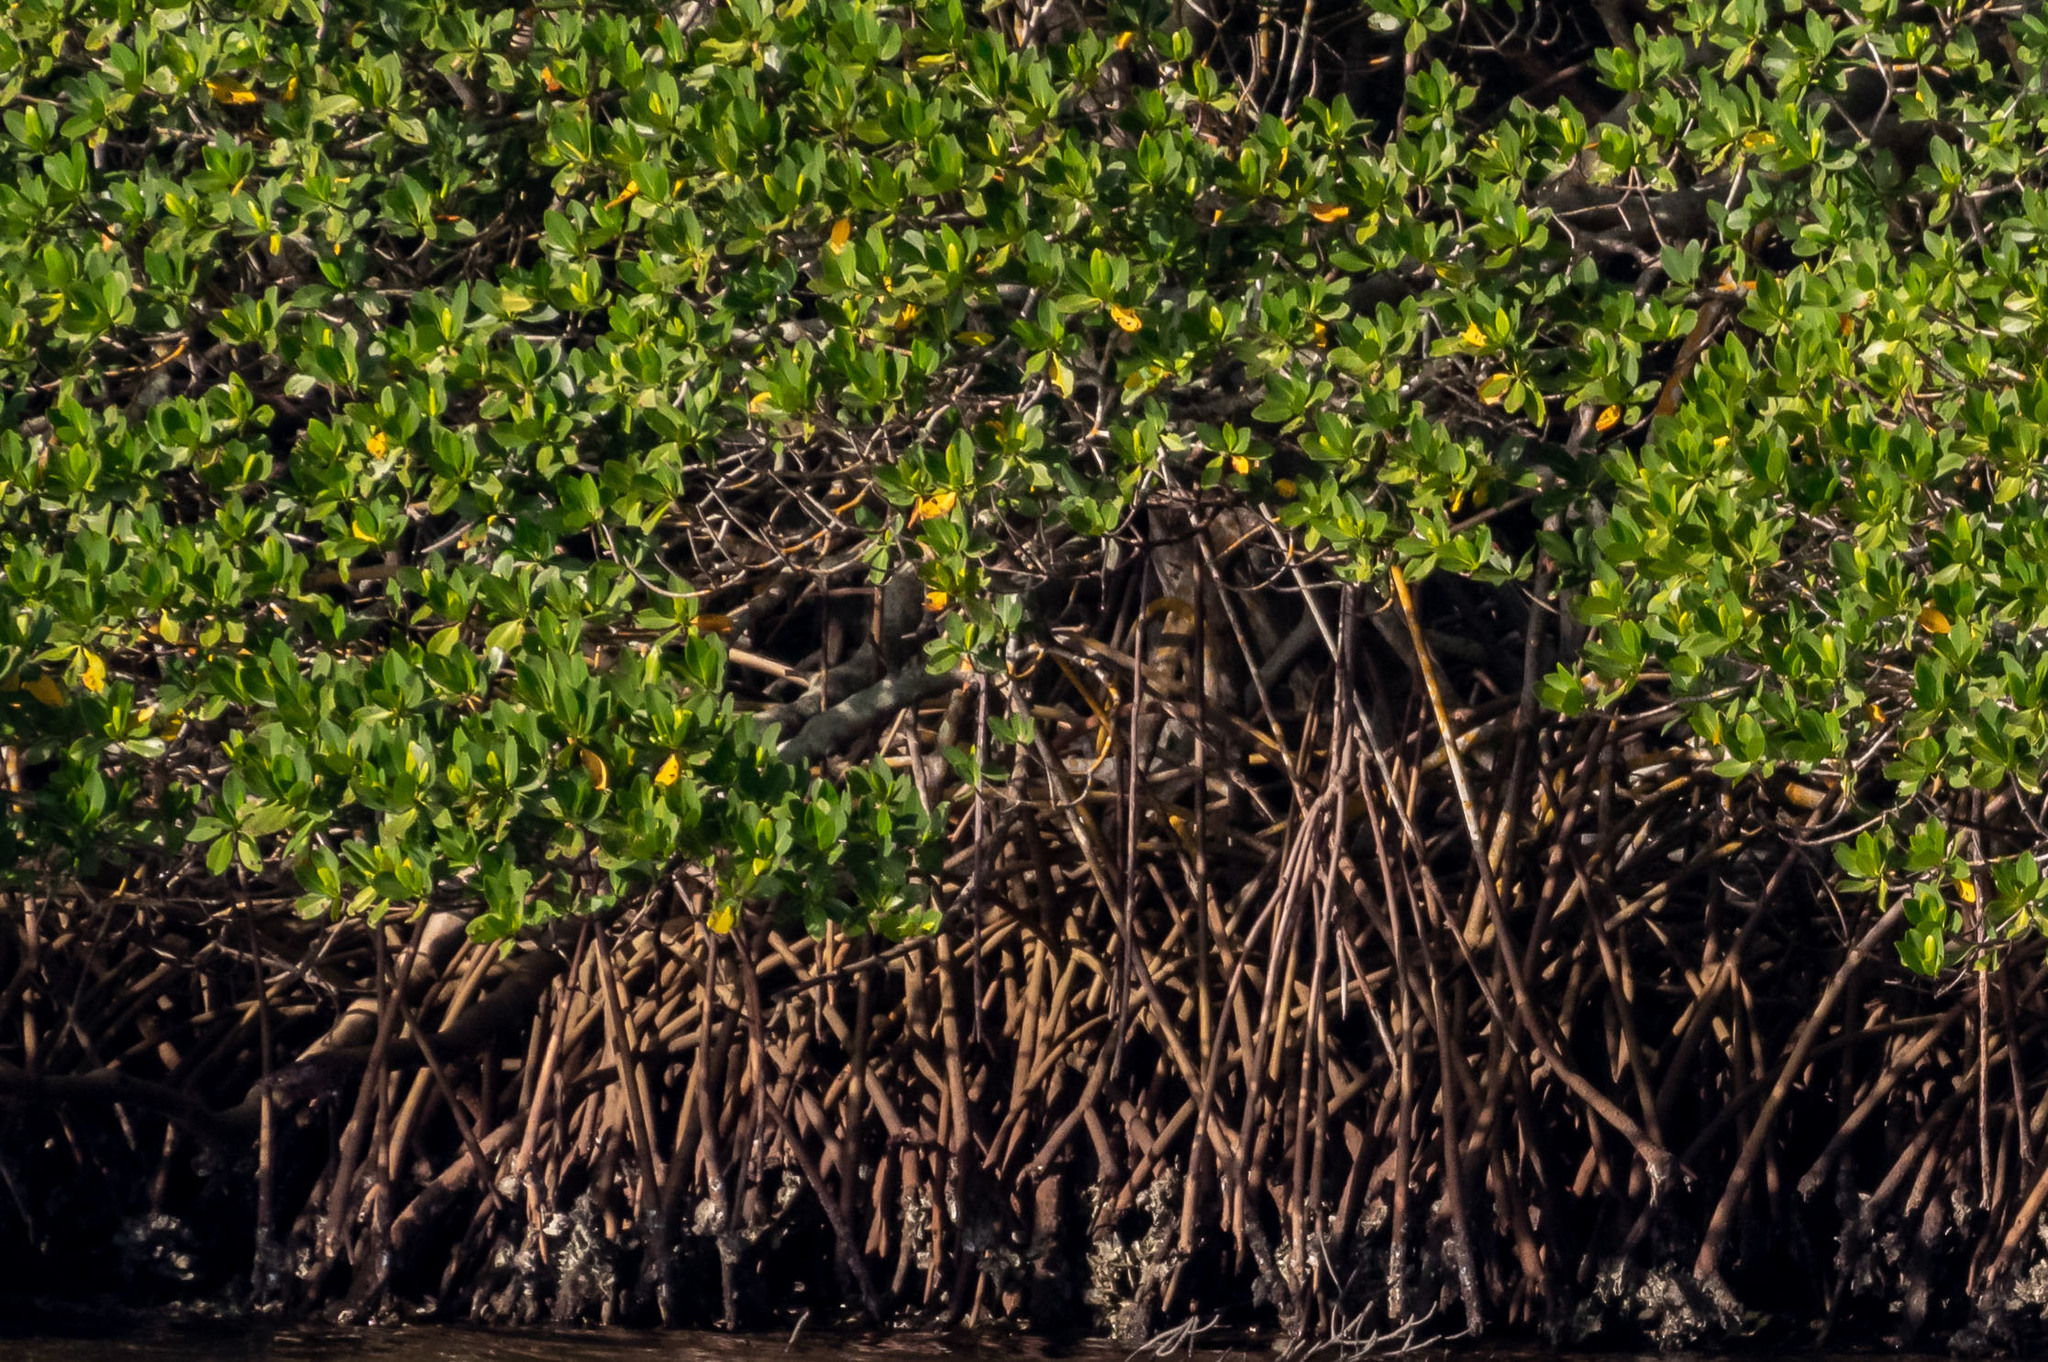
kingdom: Plantae
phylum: Tracheophyta
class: Magnoliopsida
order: Malpighiales
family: Rhizophoraceae
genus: Rhizophora
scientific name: Rhizophora mangle
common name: Red mangrove
